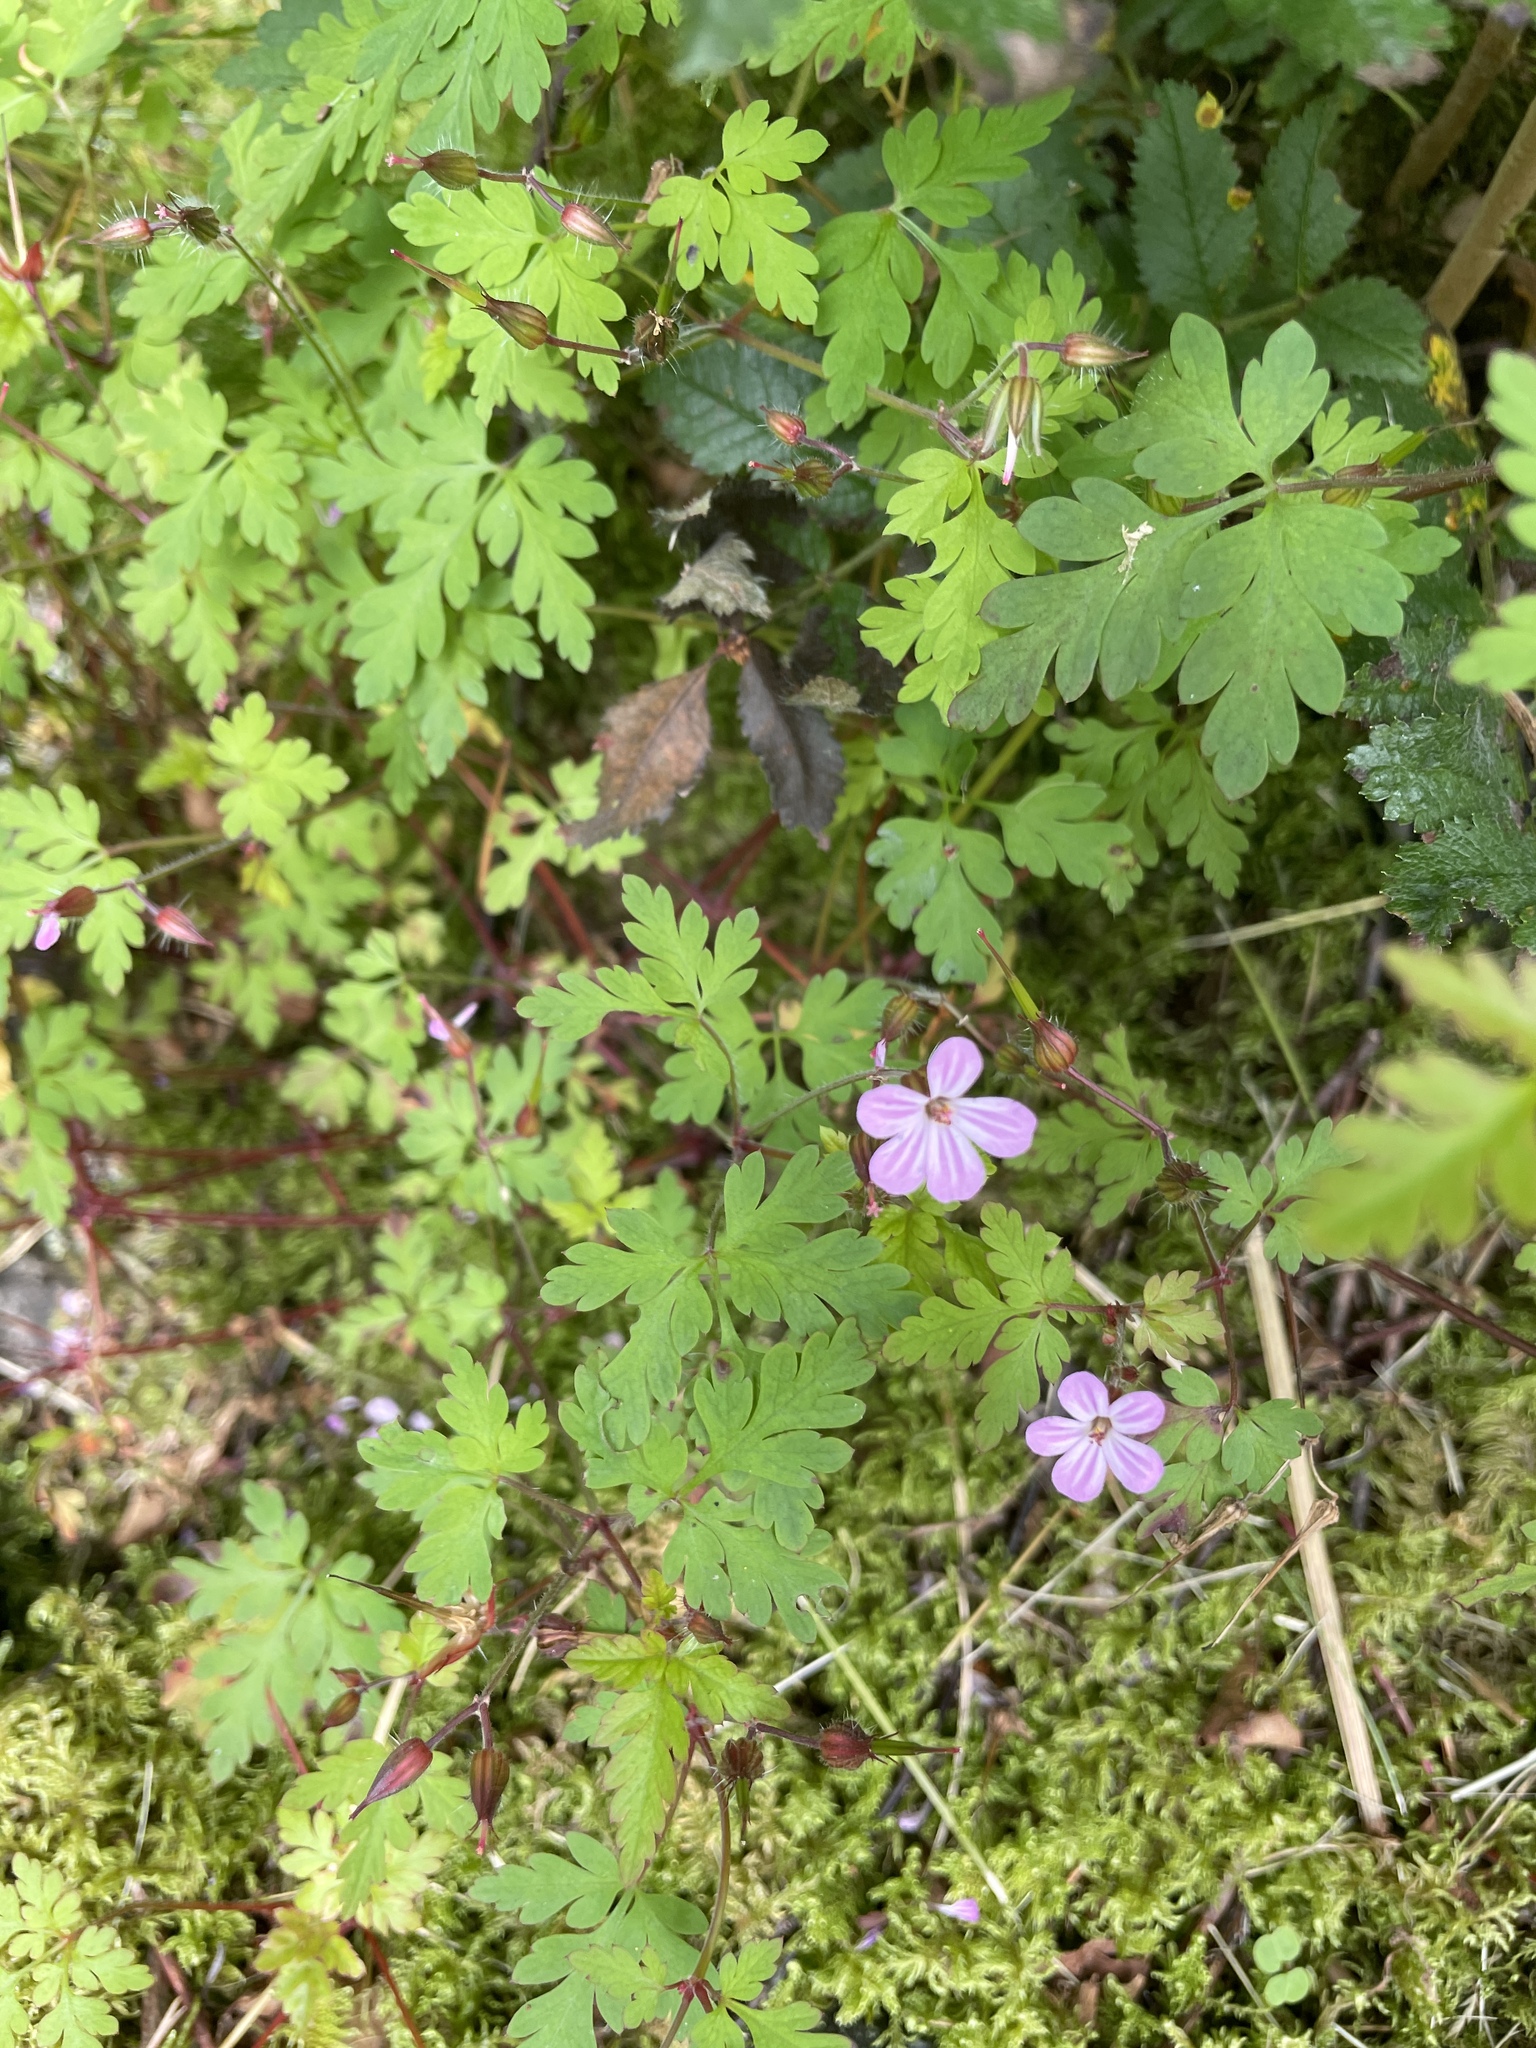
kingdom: Plantae
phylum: Tracheophyta
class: Magnoliopsida
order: Geraniales
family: Geraniaceae
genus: Geranium
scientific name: Geranium robertianum
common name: Herb-robert
